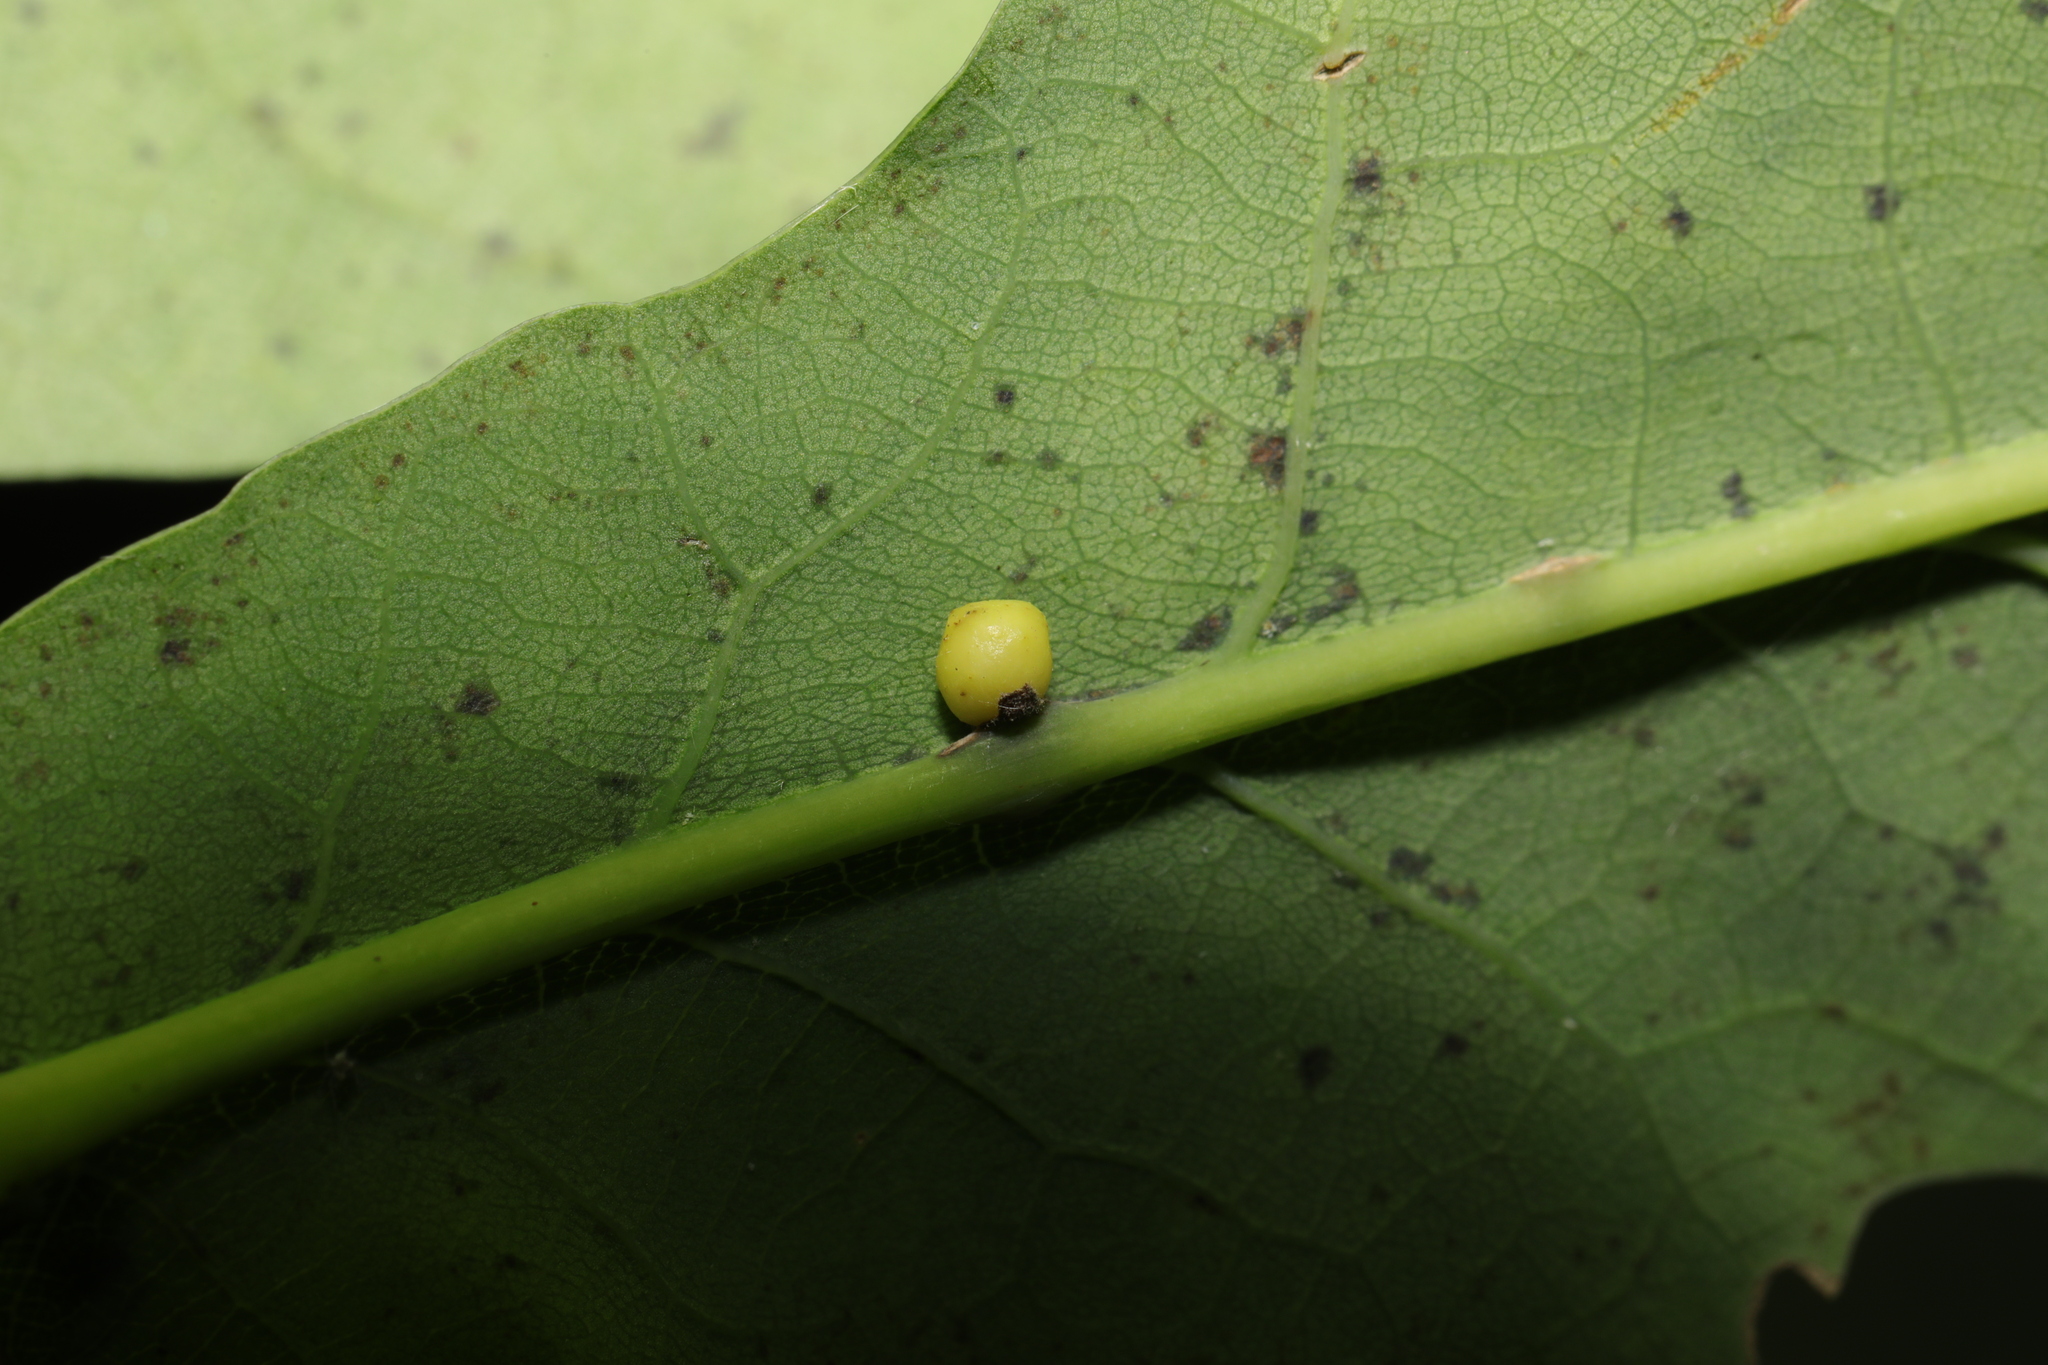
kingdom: Animalia
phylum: Arthropoda
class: Insecta
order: Hymenoptera
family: Cynipidae
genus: Neuroterus
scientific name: Neuroterus anthracinus
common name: Oyster gall
